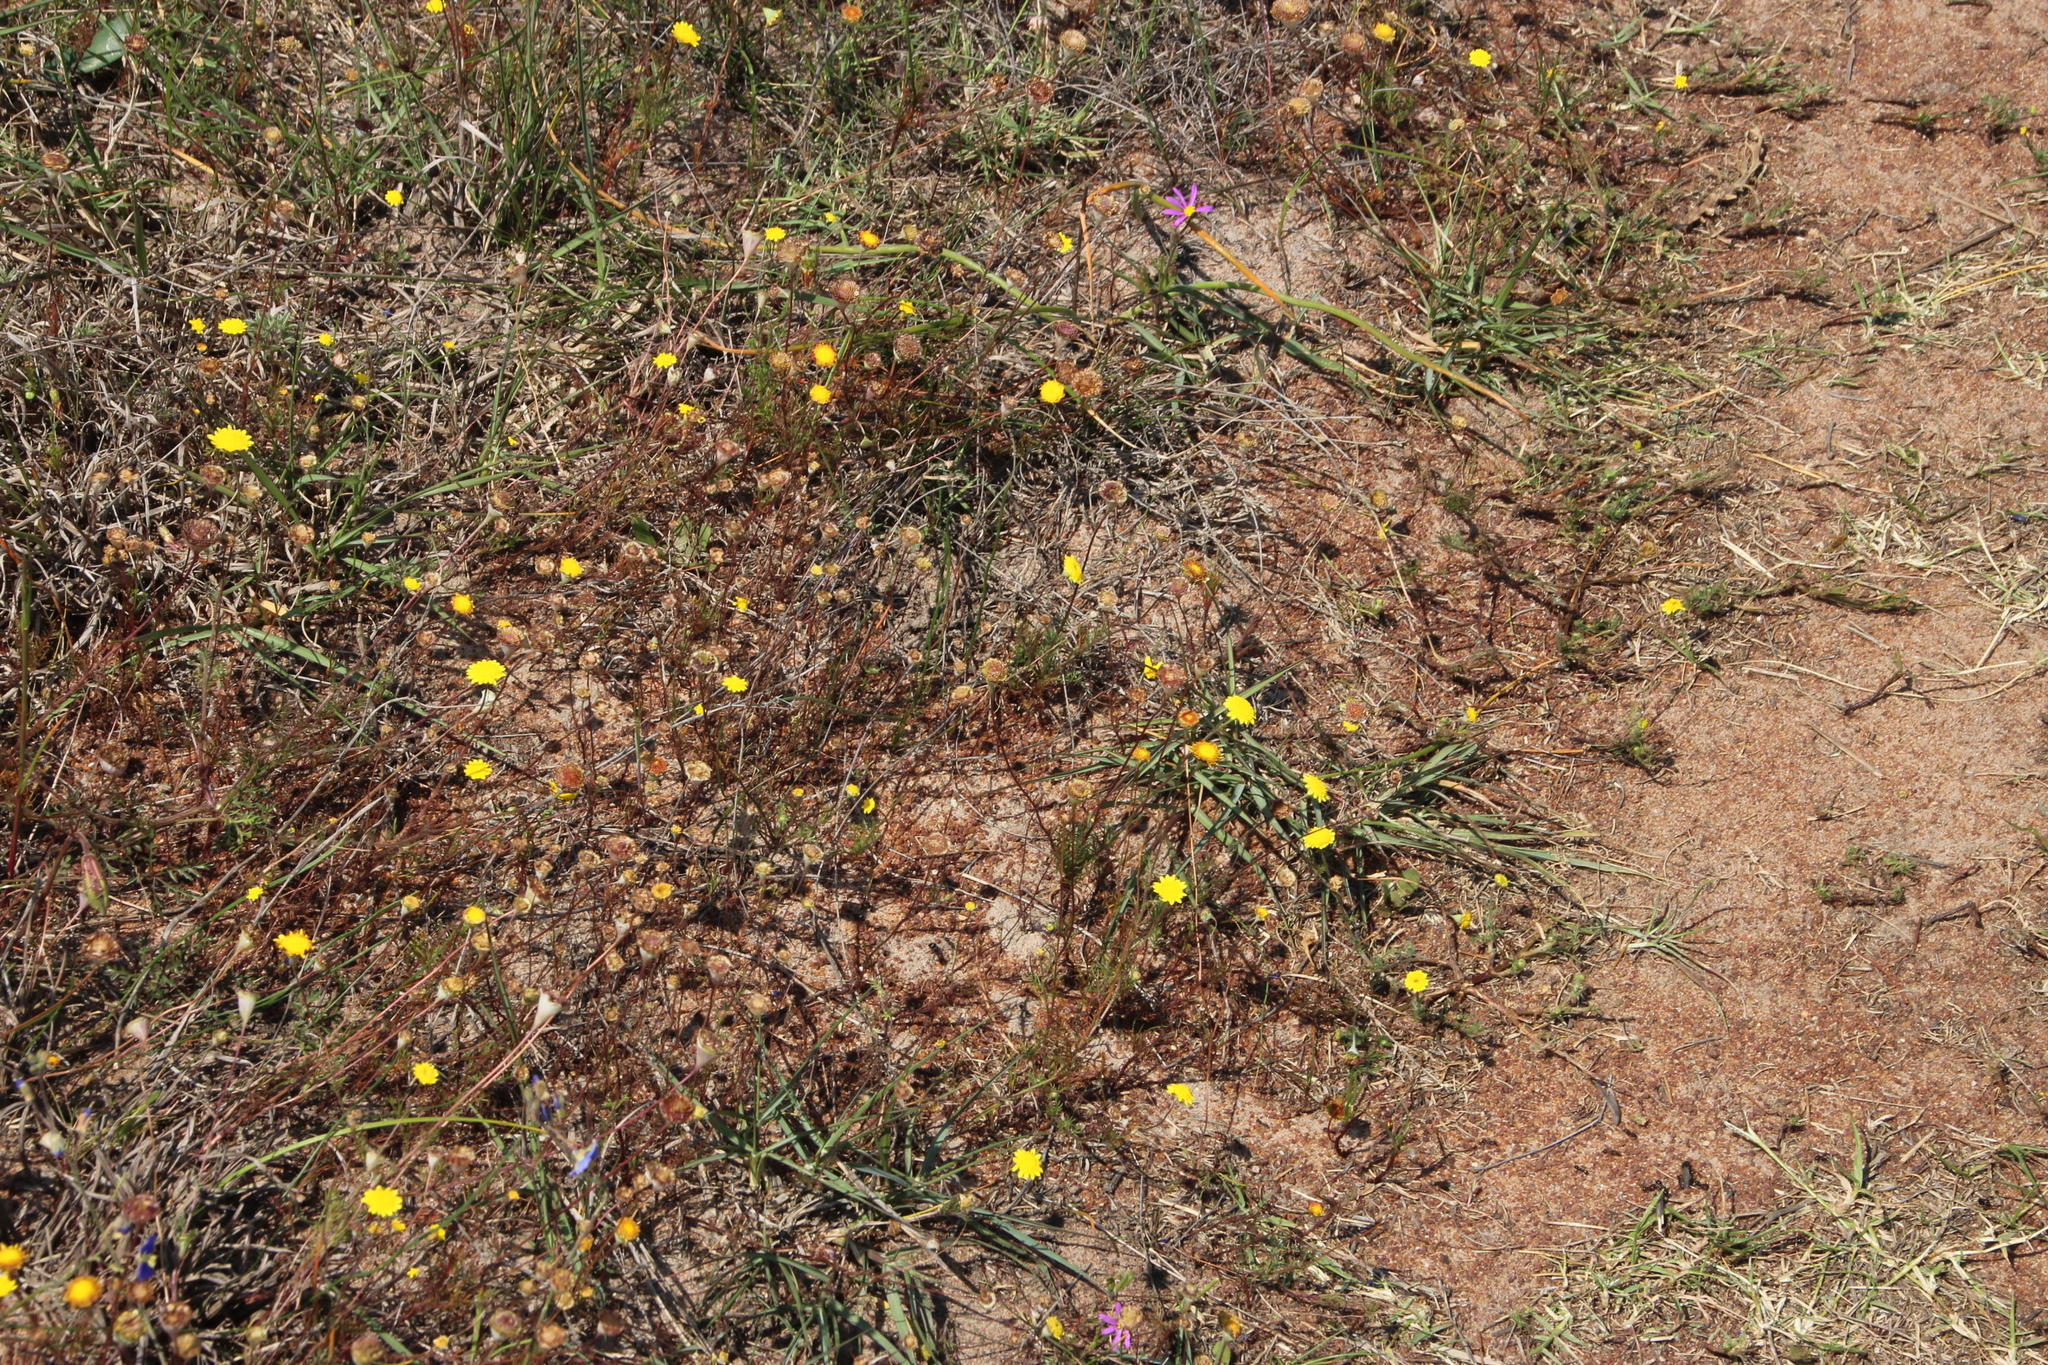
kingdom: Plantae
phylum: Tracheophyta
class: Magnoliopsida
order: Asterales
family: Asteraceae
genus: Cotula
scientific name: Cotula pruinosa
